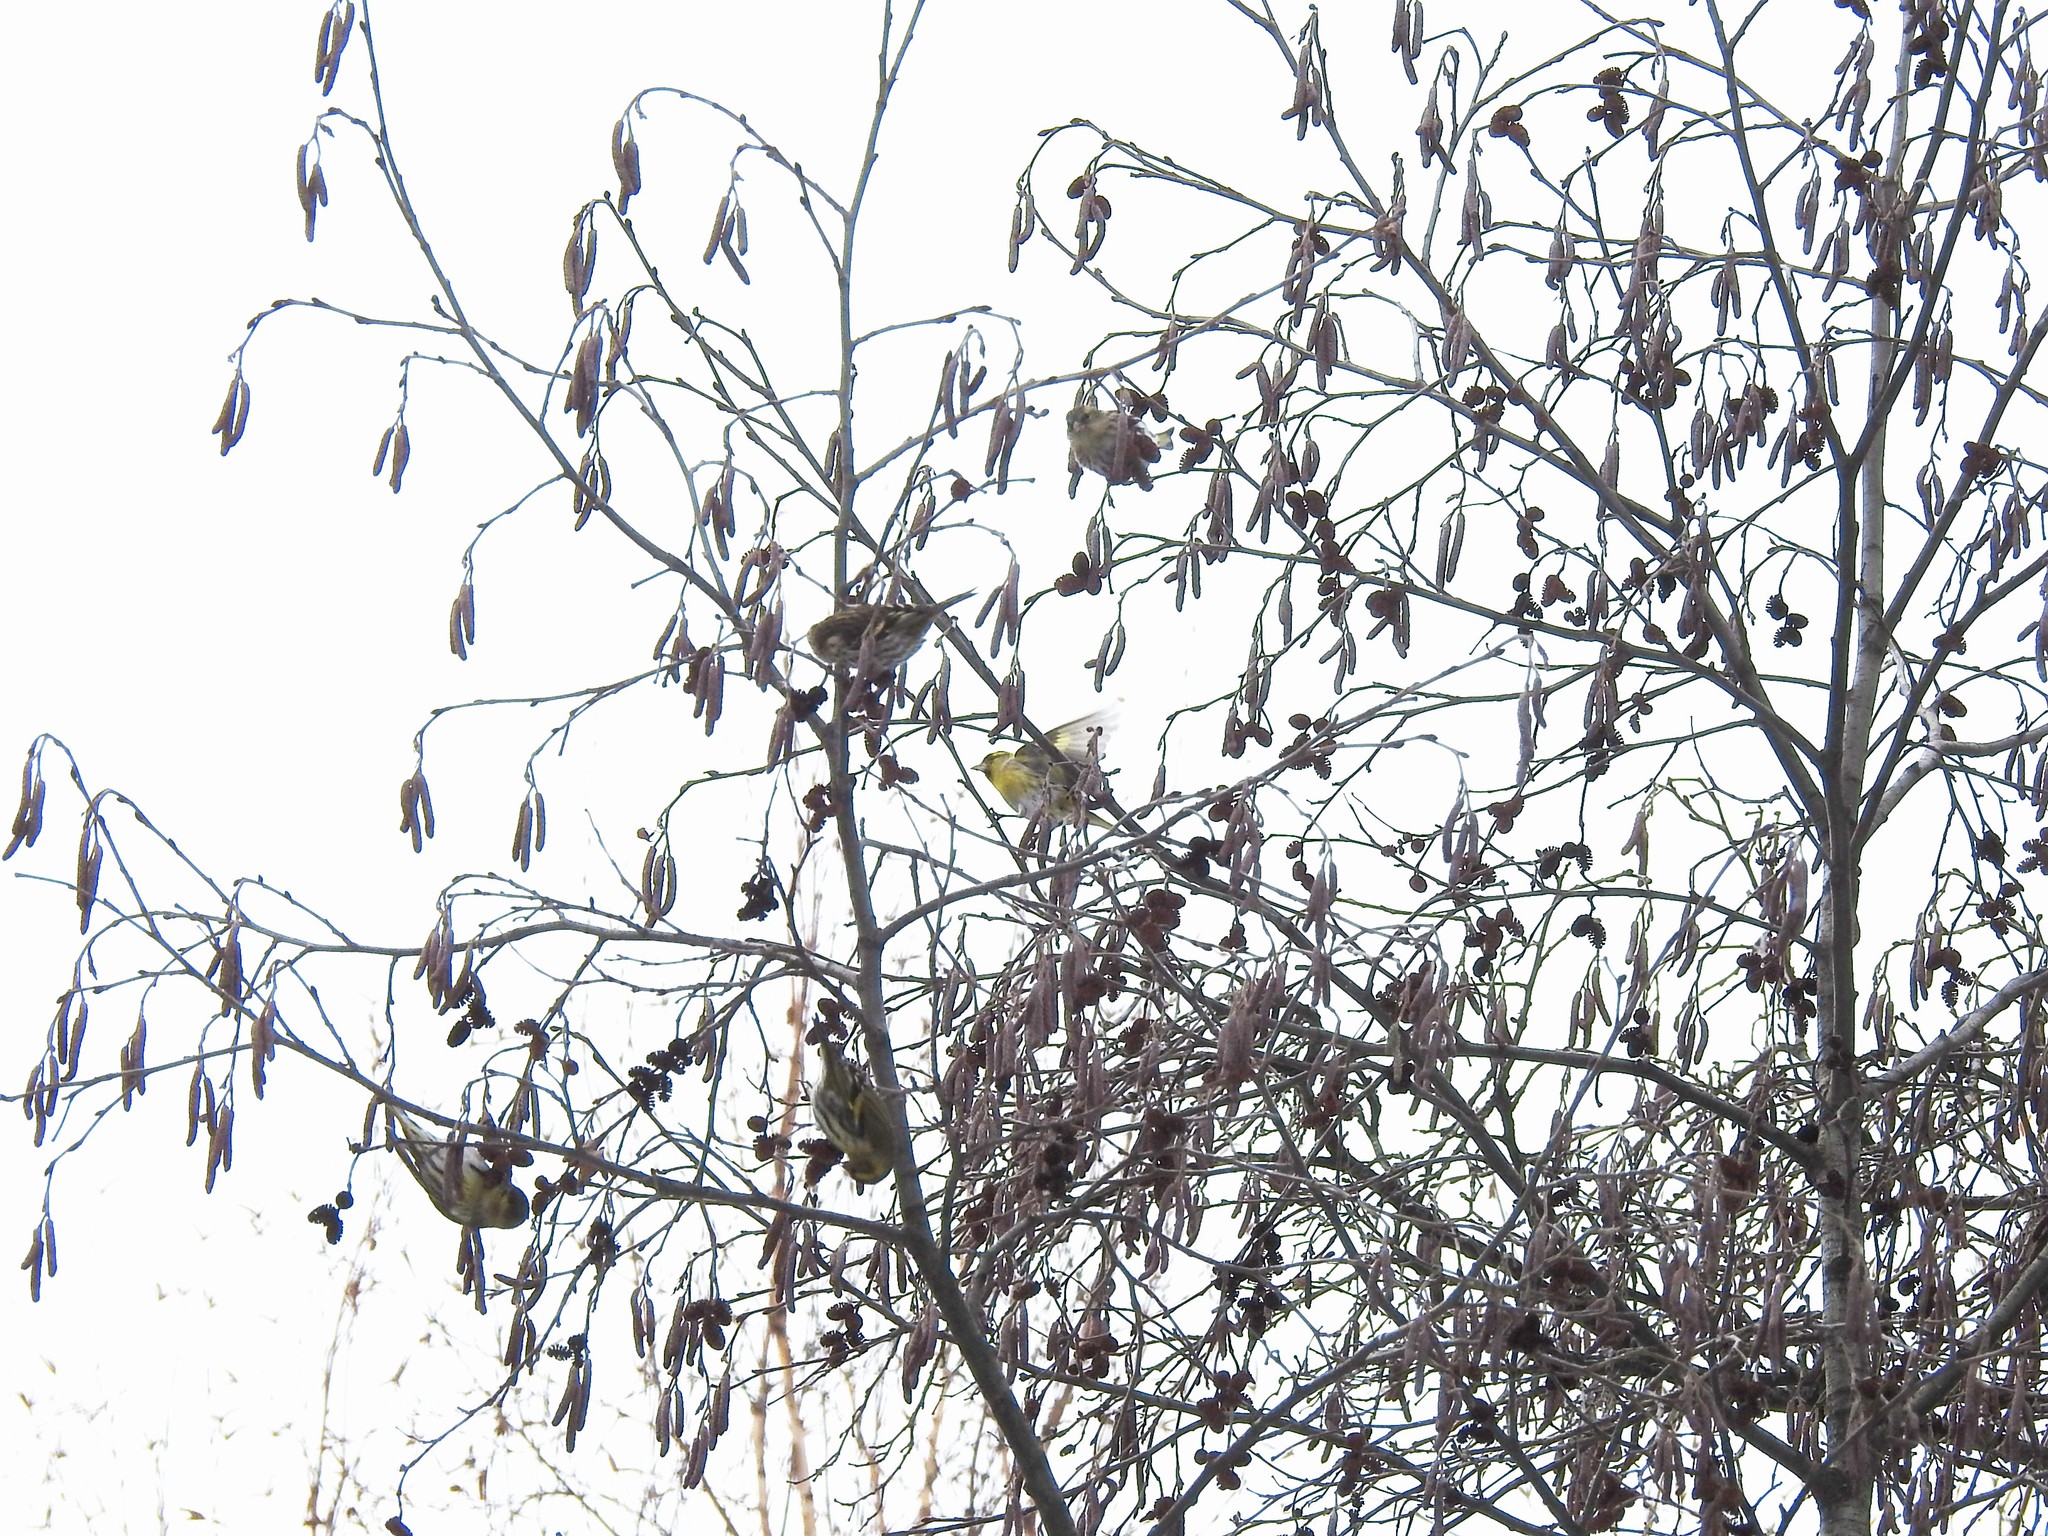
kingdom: Animalia
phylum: Chordata
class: Aves
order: Passeriformes
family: Fringillidae
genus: Spinus
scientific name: Spinus spinus
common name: Eurasian siskin
